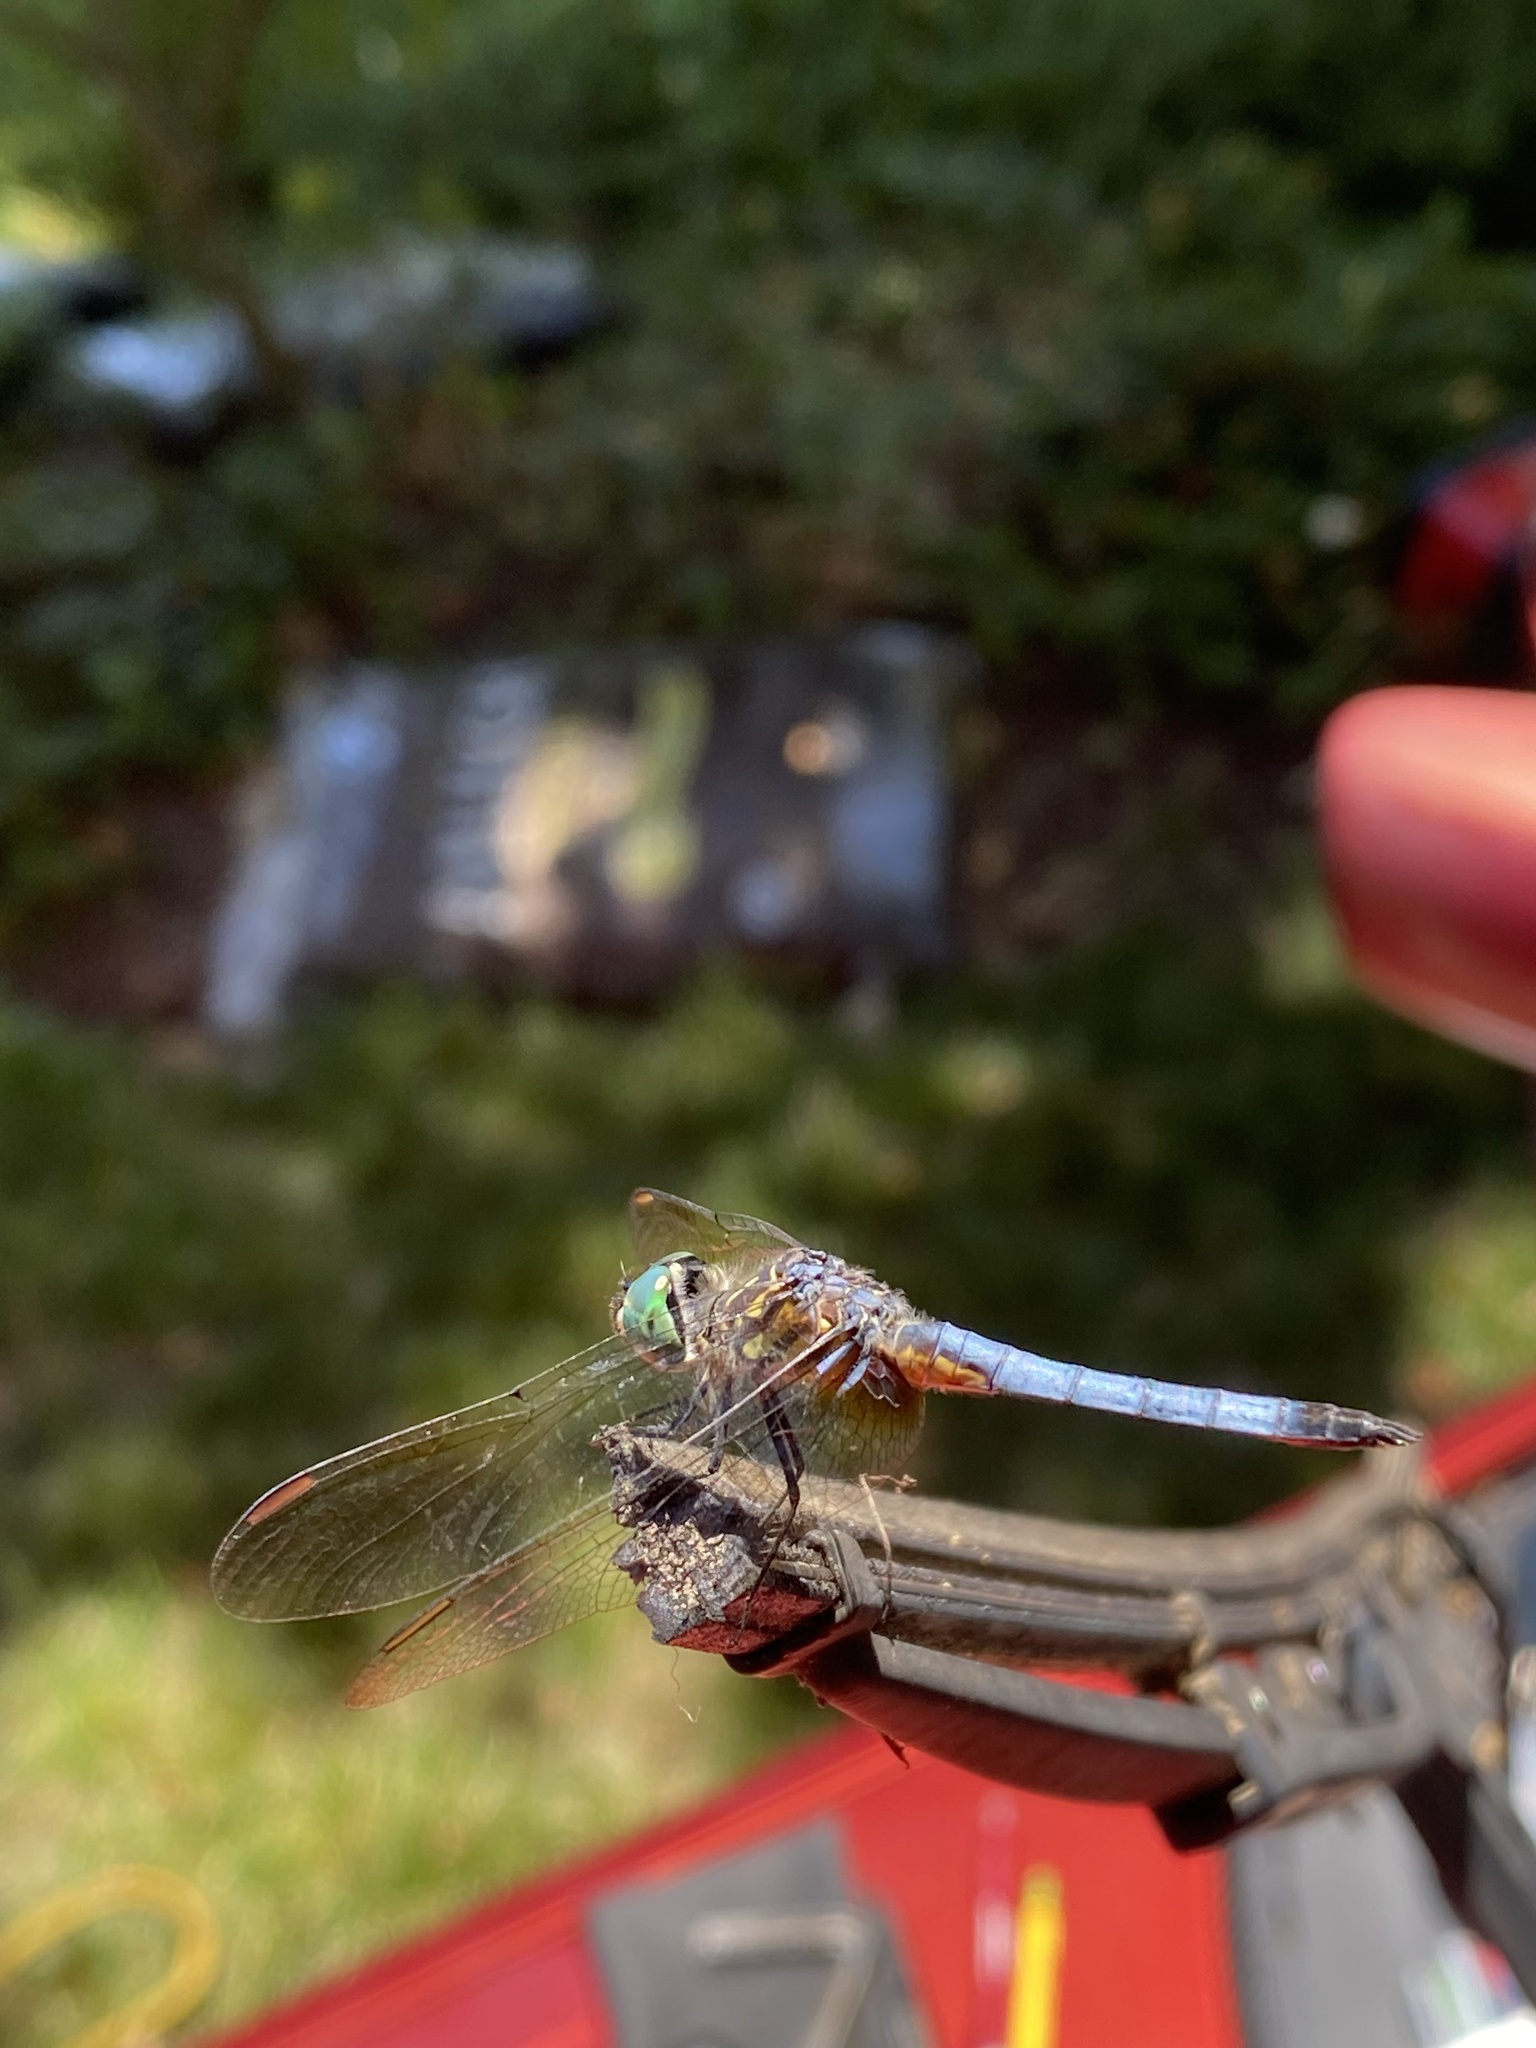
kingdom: Animalia
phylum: Arthropoda
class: Insecta
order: Odonata
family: Libellulidae
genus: Pachydiplax
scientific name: Pachydiplax longipennis
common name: Blue dasher
